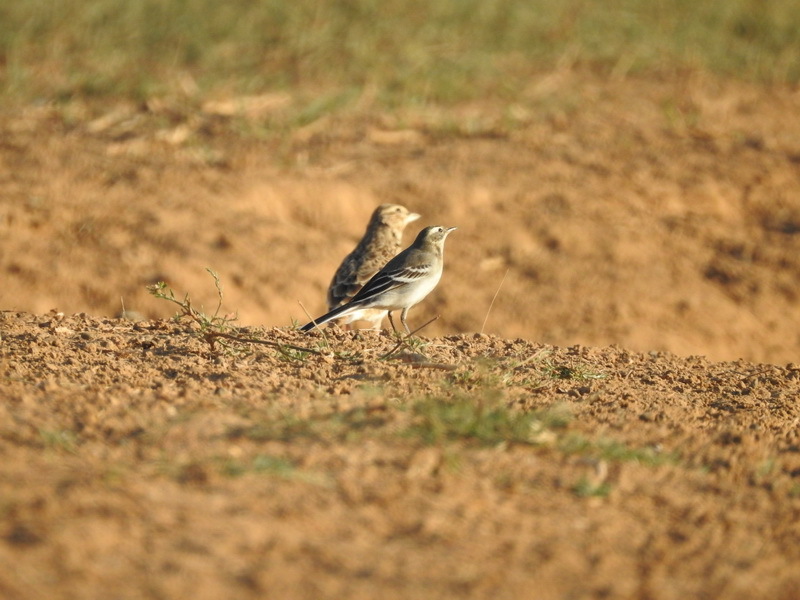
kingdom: Animalia
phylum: Chordata
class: Aves
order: Passeriformes
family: Motacillidae
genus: Motacilla
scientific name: Motacilla citreola
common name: Citrine wagtail
